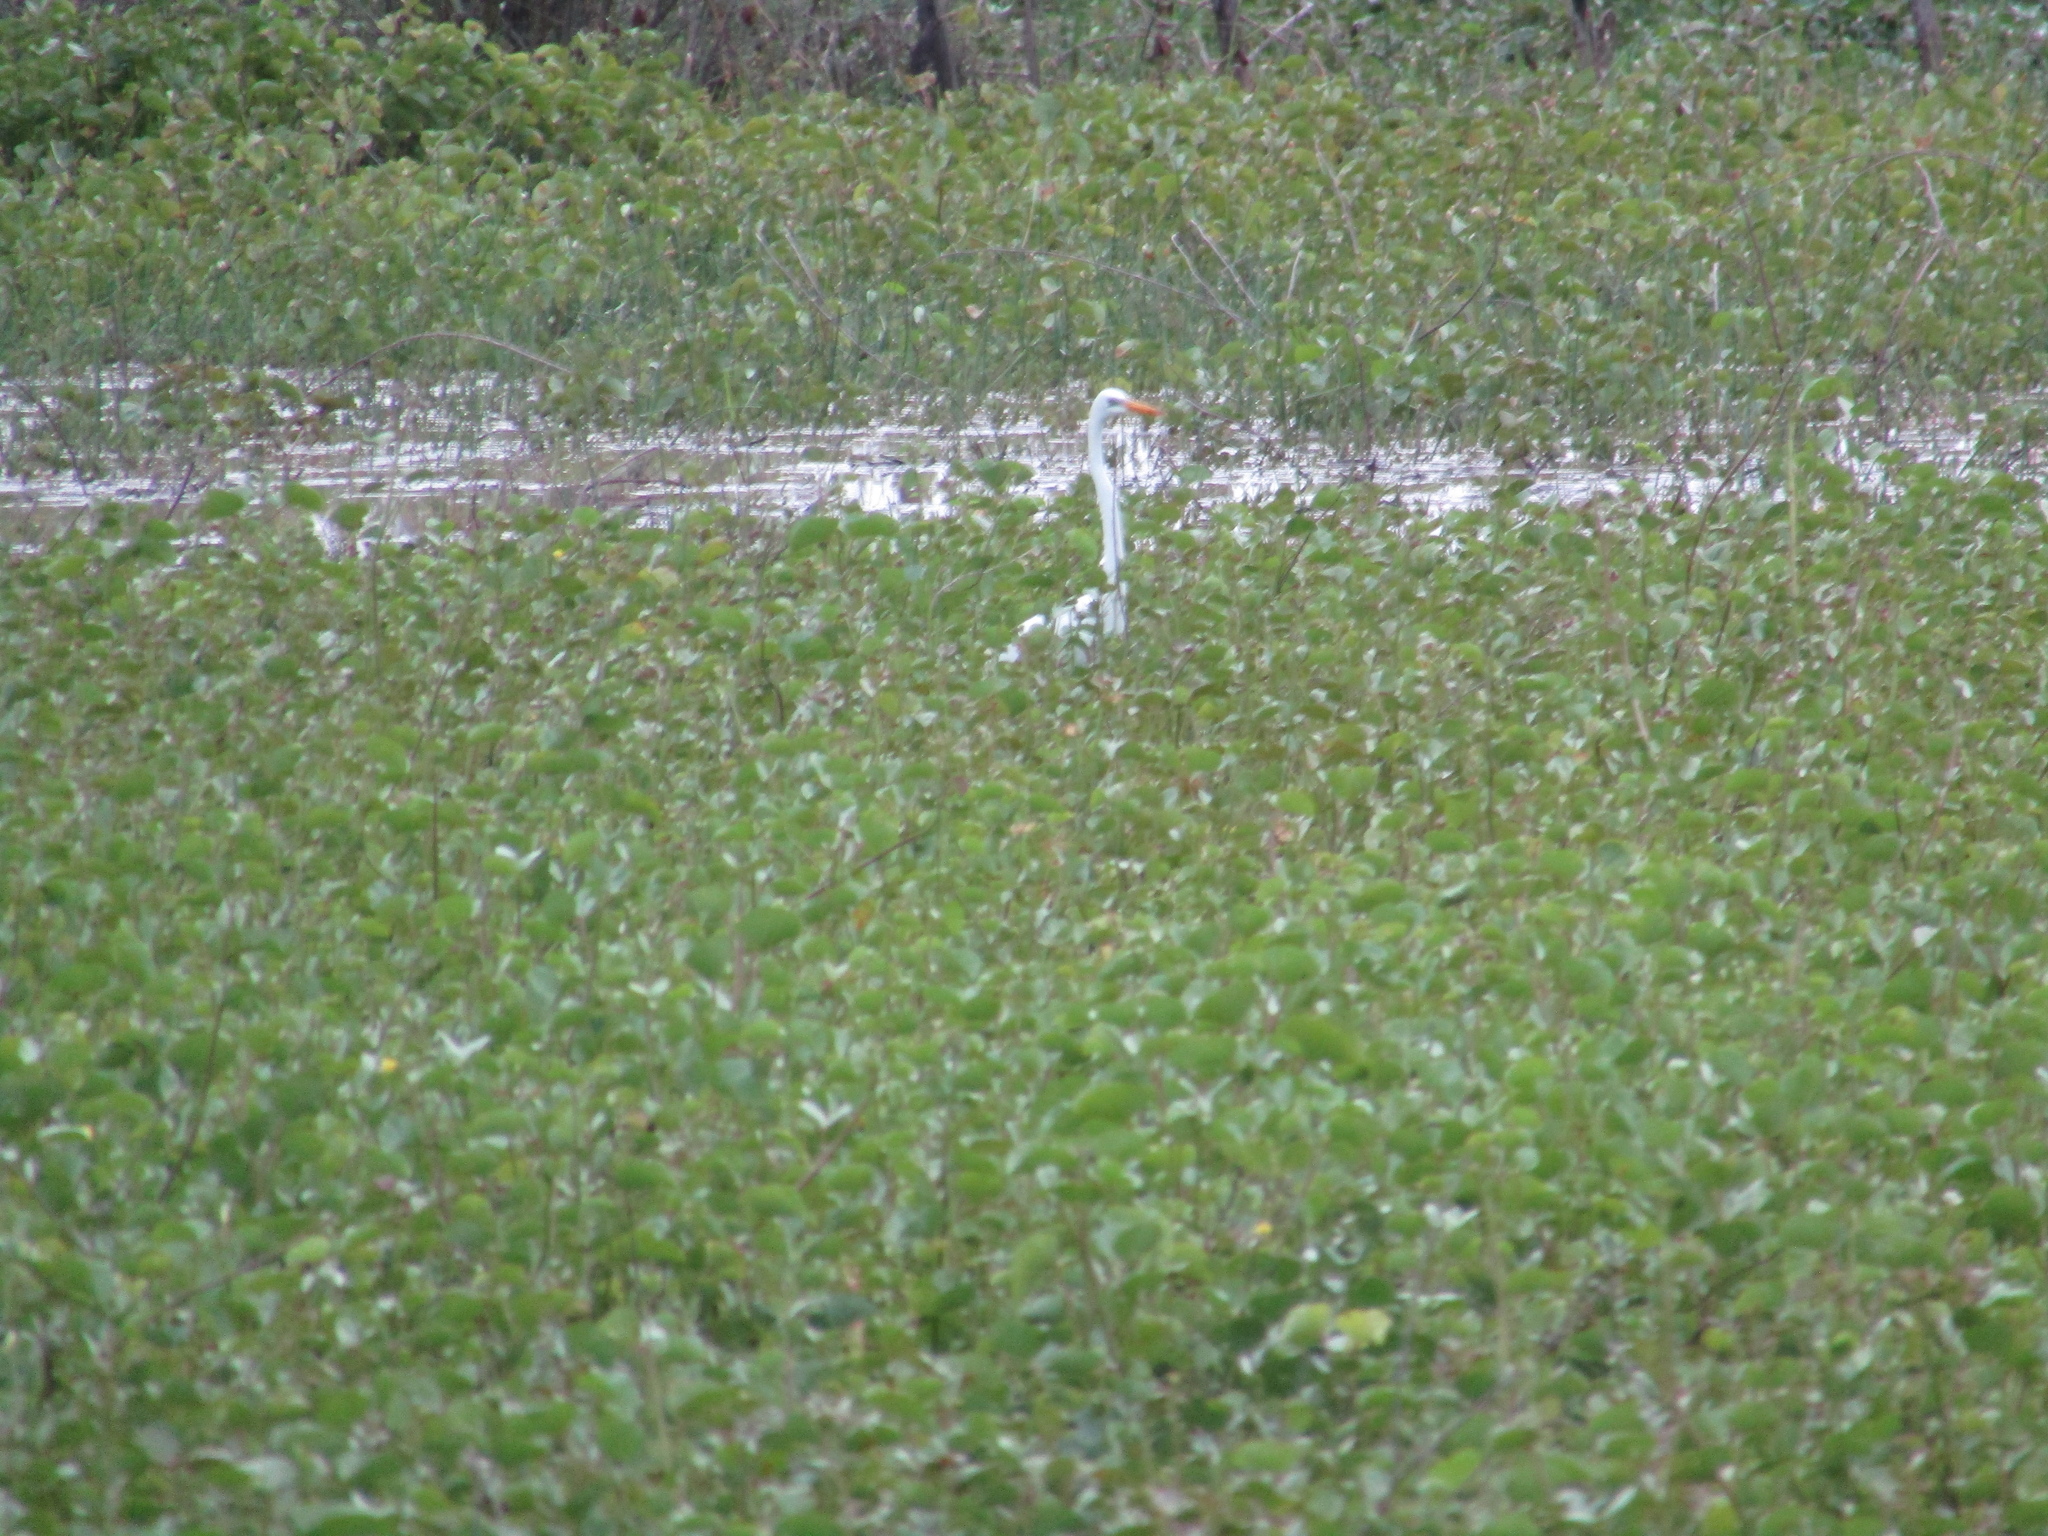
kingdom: Animalia
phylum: Chordata
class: Aves
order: Pelecaniformes
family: Ardeidae
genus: Ardea
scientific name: Ardea alba
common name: Great egret
